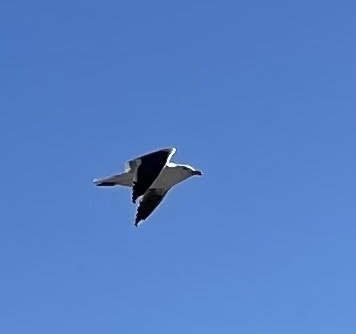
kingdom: Animalia
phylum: Chordata
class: Aves
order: Charadriiformes
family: Laridae
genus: Larus
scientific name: Larus occidentalis
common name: Western gull
